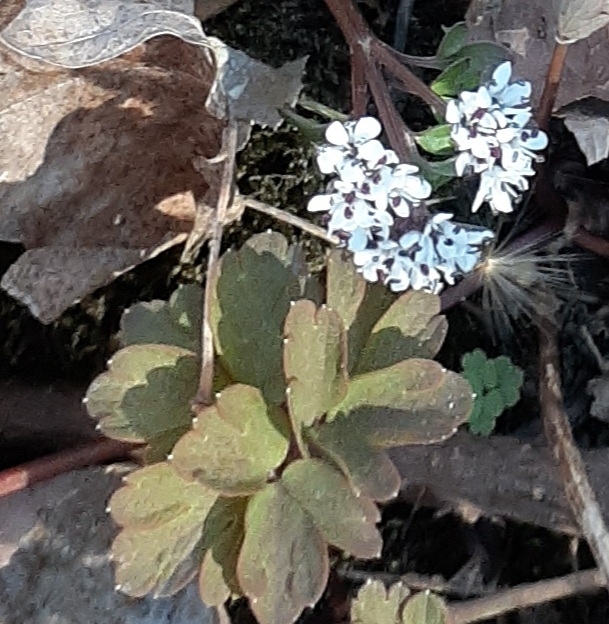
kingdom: Plantae
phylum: Tracheophyta
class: Magnoliopsida
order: Apiales
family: Apiaceae
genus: Erigenia
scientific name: Erigenia bulbosa
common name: Pepper-and-salt
